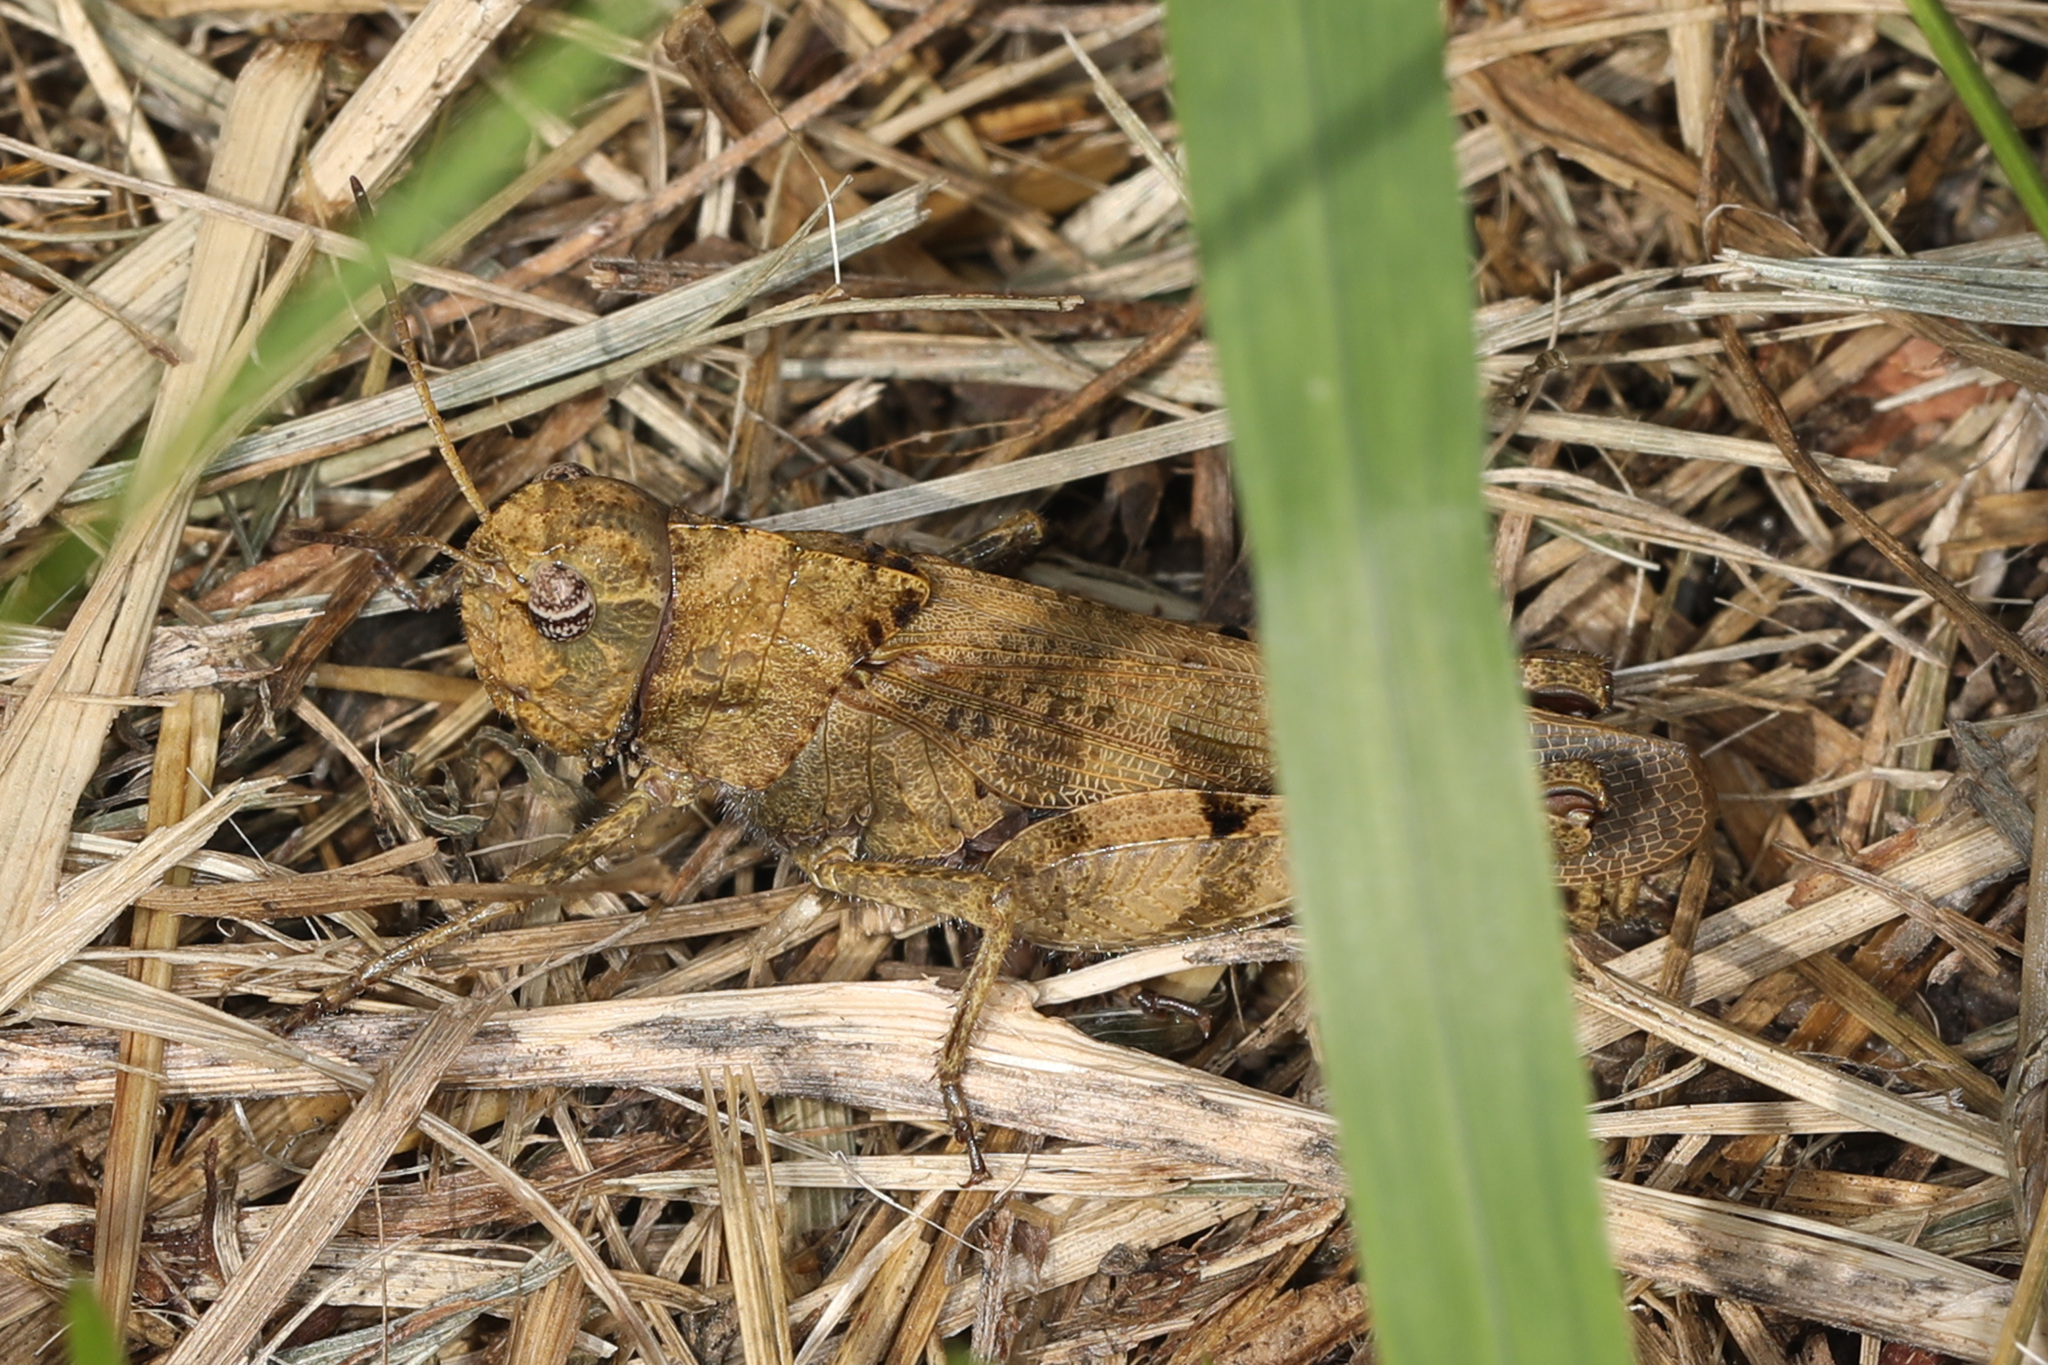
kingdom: Animalia
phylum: Arthropoda
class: Insecta
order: Orthoptera
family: Acrididae
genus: Encoptolophus
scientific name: Encoptolophus sordidus
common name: Dusky grasshopper
